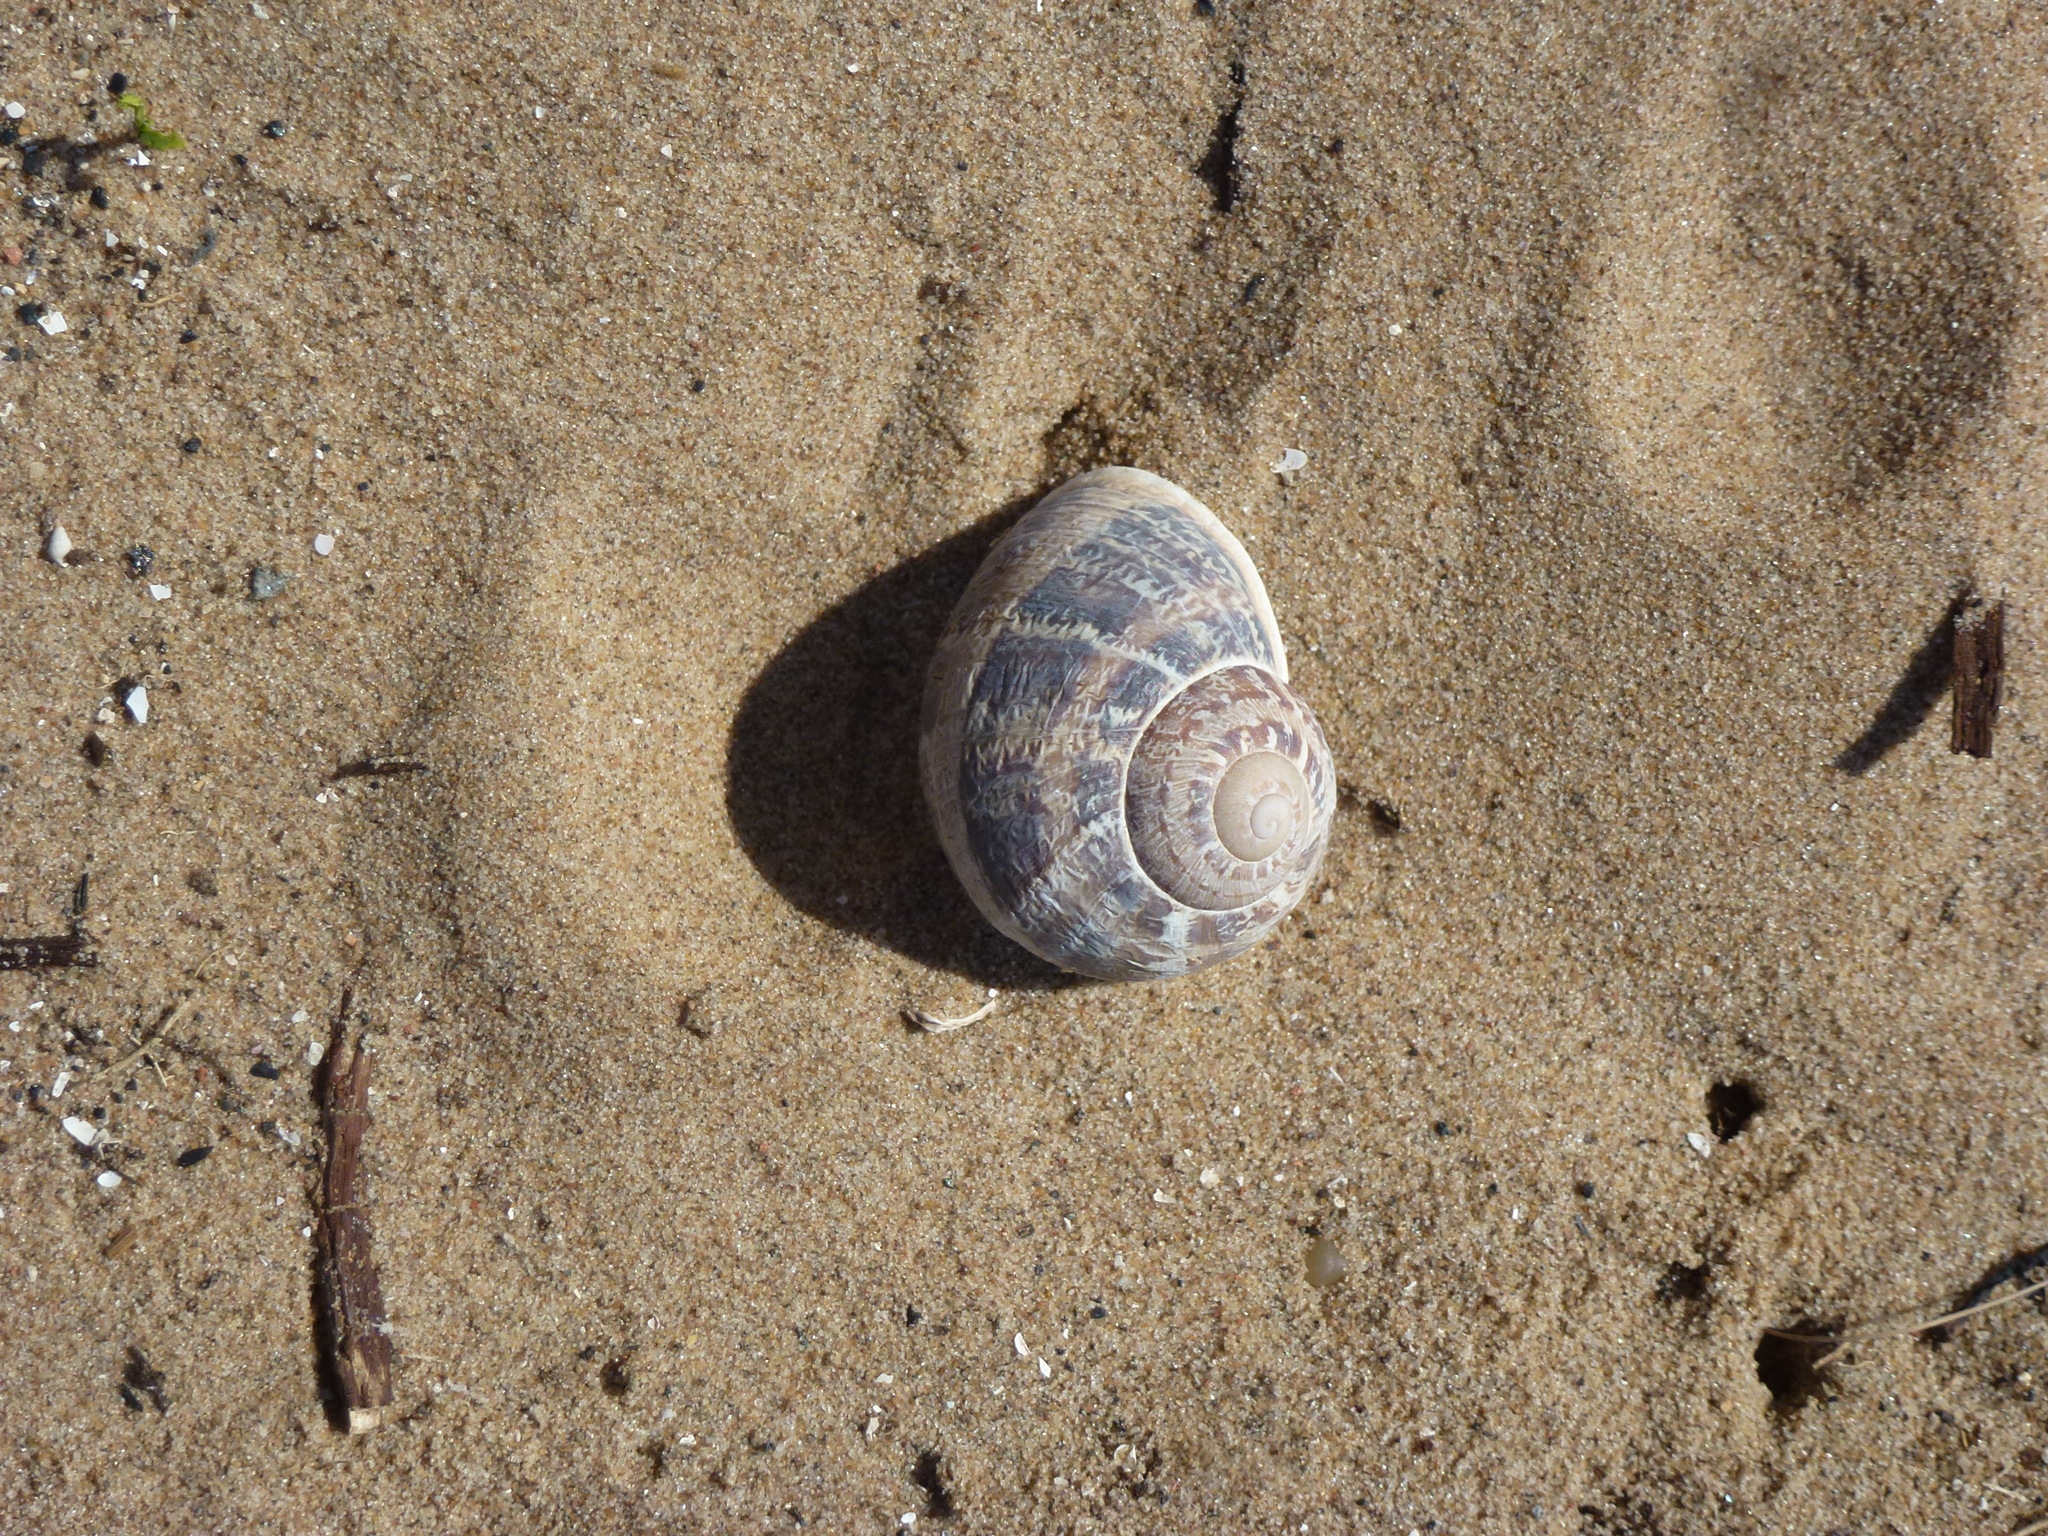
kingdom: Animalia
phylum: Mollusca
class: Gastropoda
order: Stylommatophora
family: Helicidae
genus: Cornu
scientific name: Cornu aspersum
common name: Brown garden snail
